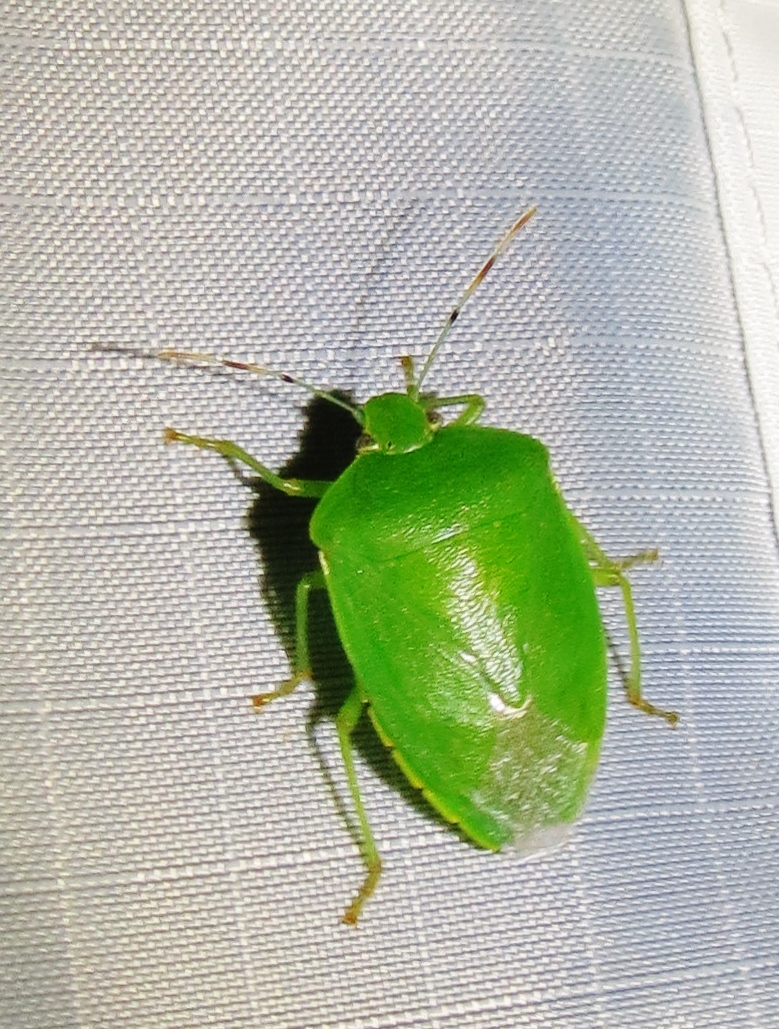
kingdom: Animalia
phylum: Arthropoda
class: Insecta
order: Hemiptera
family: Pentatomidae
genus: Chinavia
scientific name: Chinavia hilaris
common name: Green stink bug
